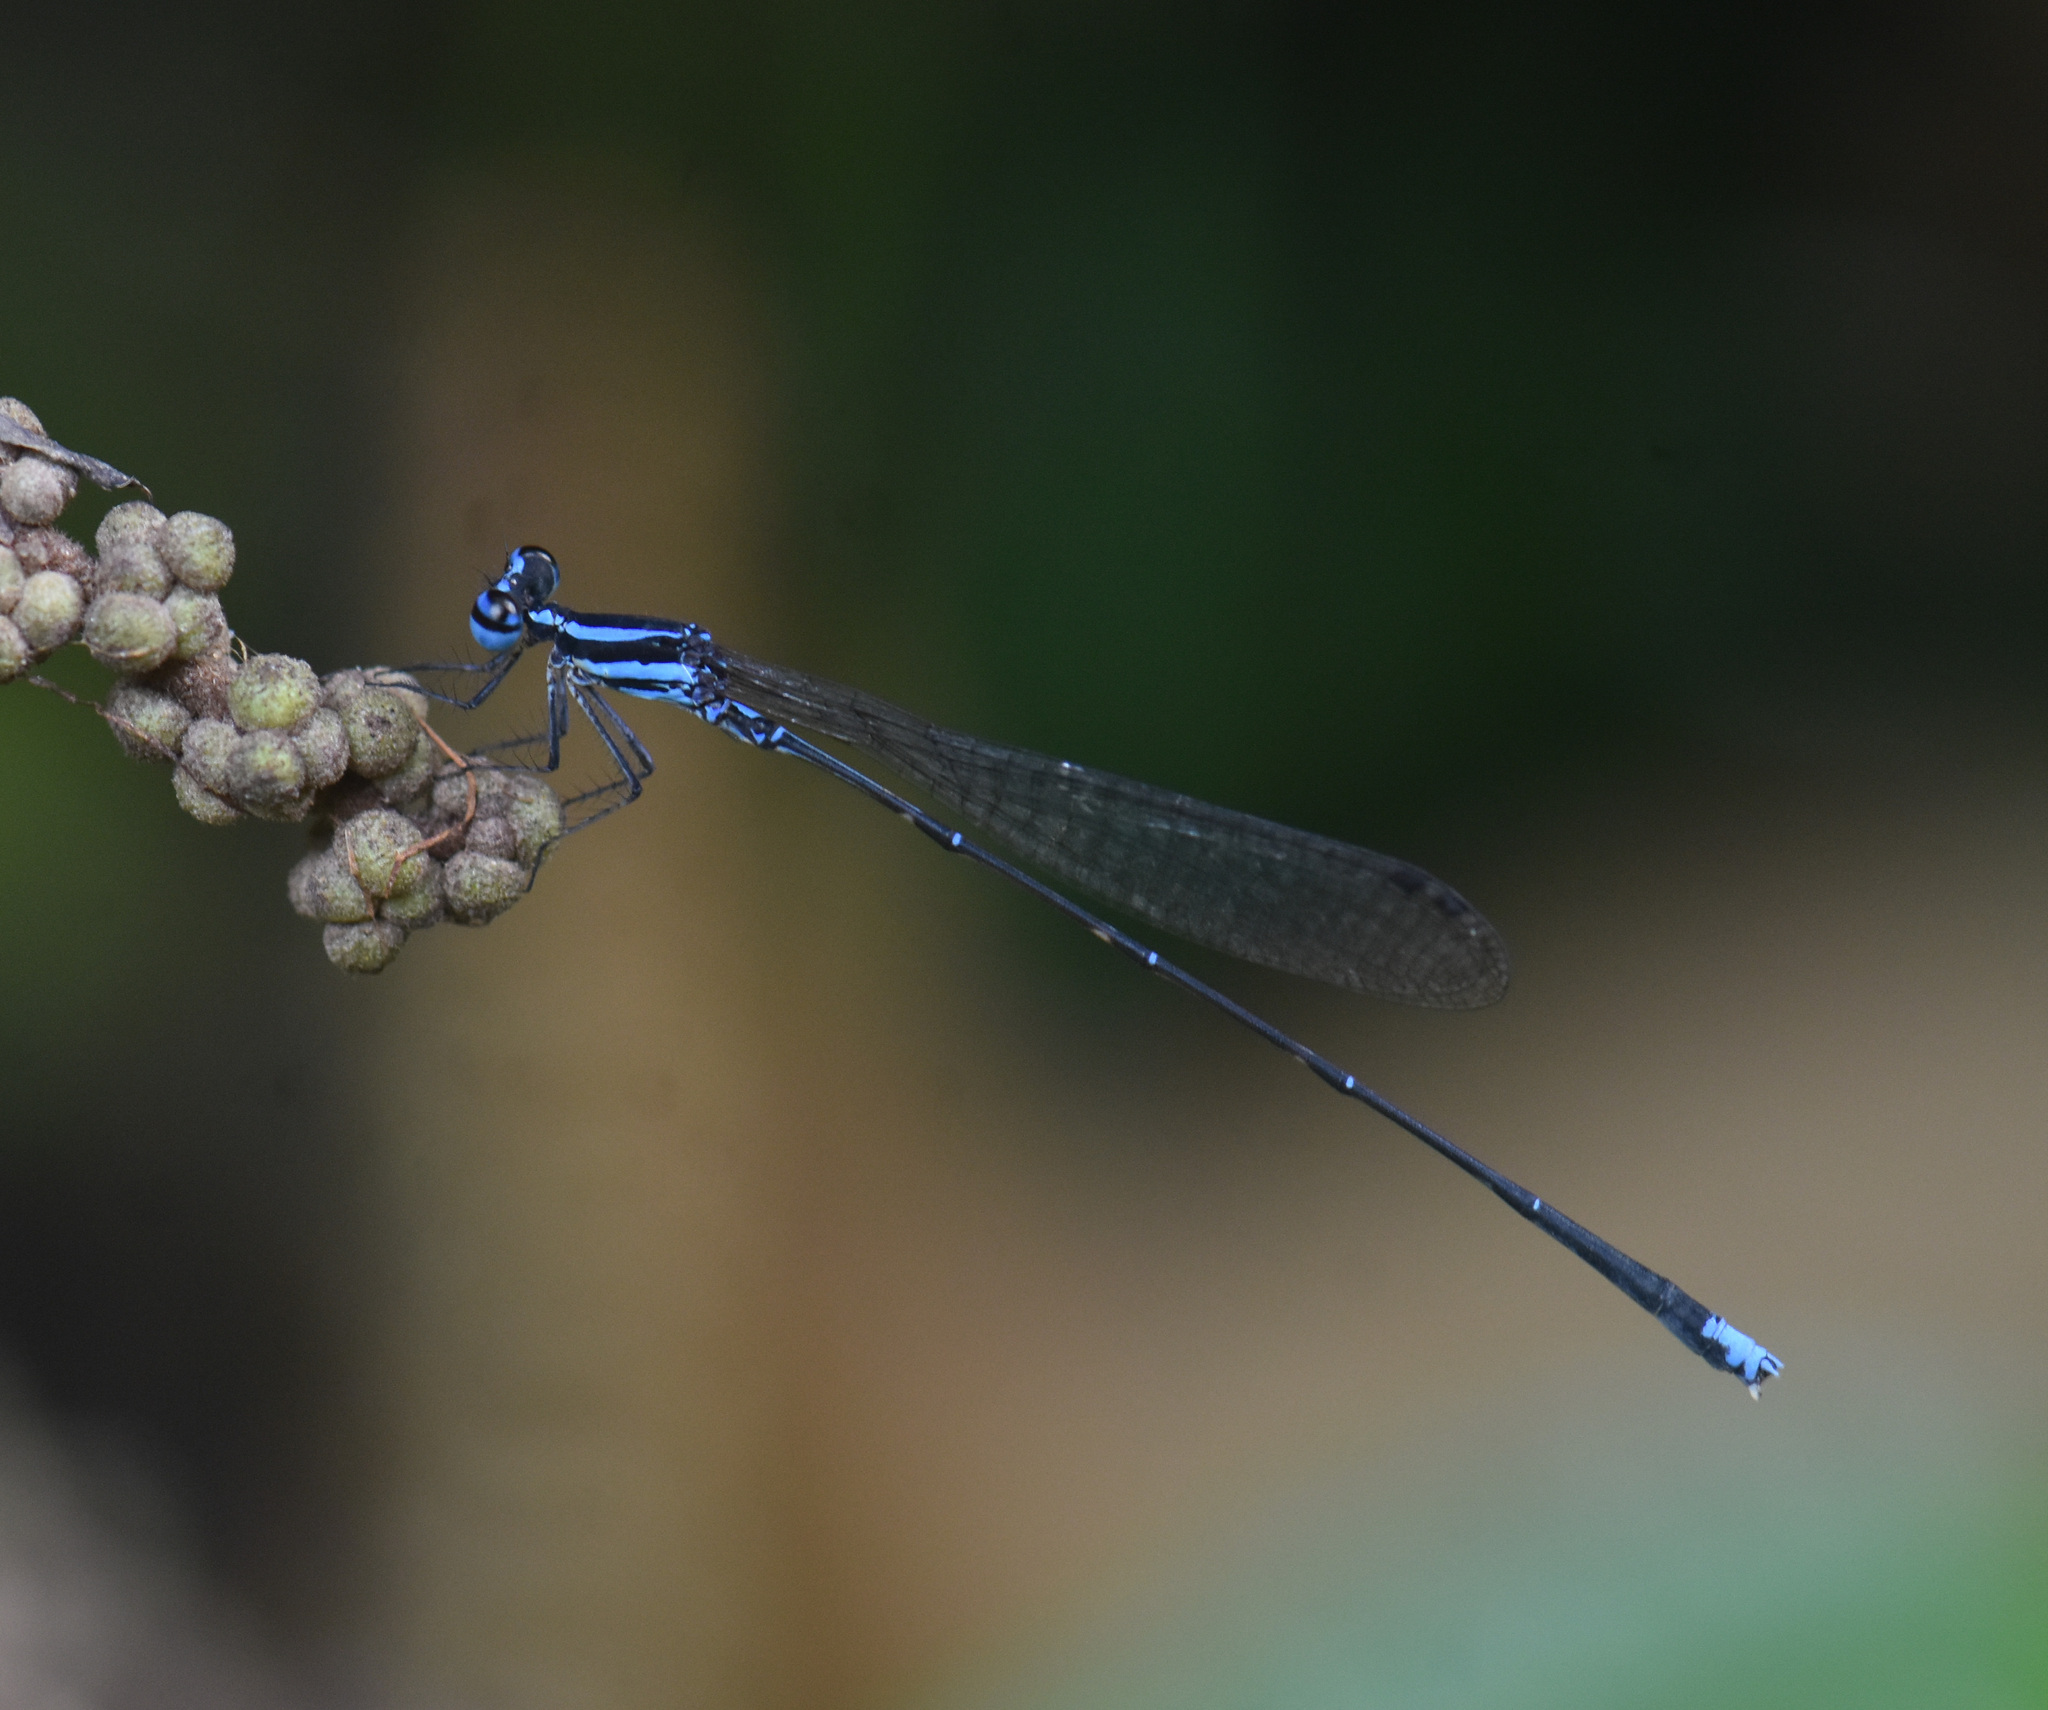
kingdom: Animalia
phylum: Arthropoda
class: Insecta
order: Odonata
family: Platycnemididae
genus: Elattoneura
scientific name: Elattoneura campioni
